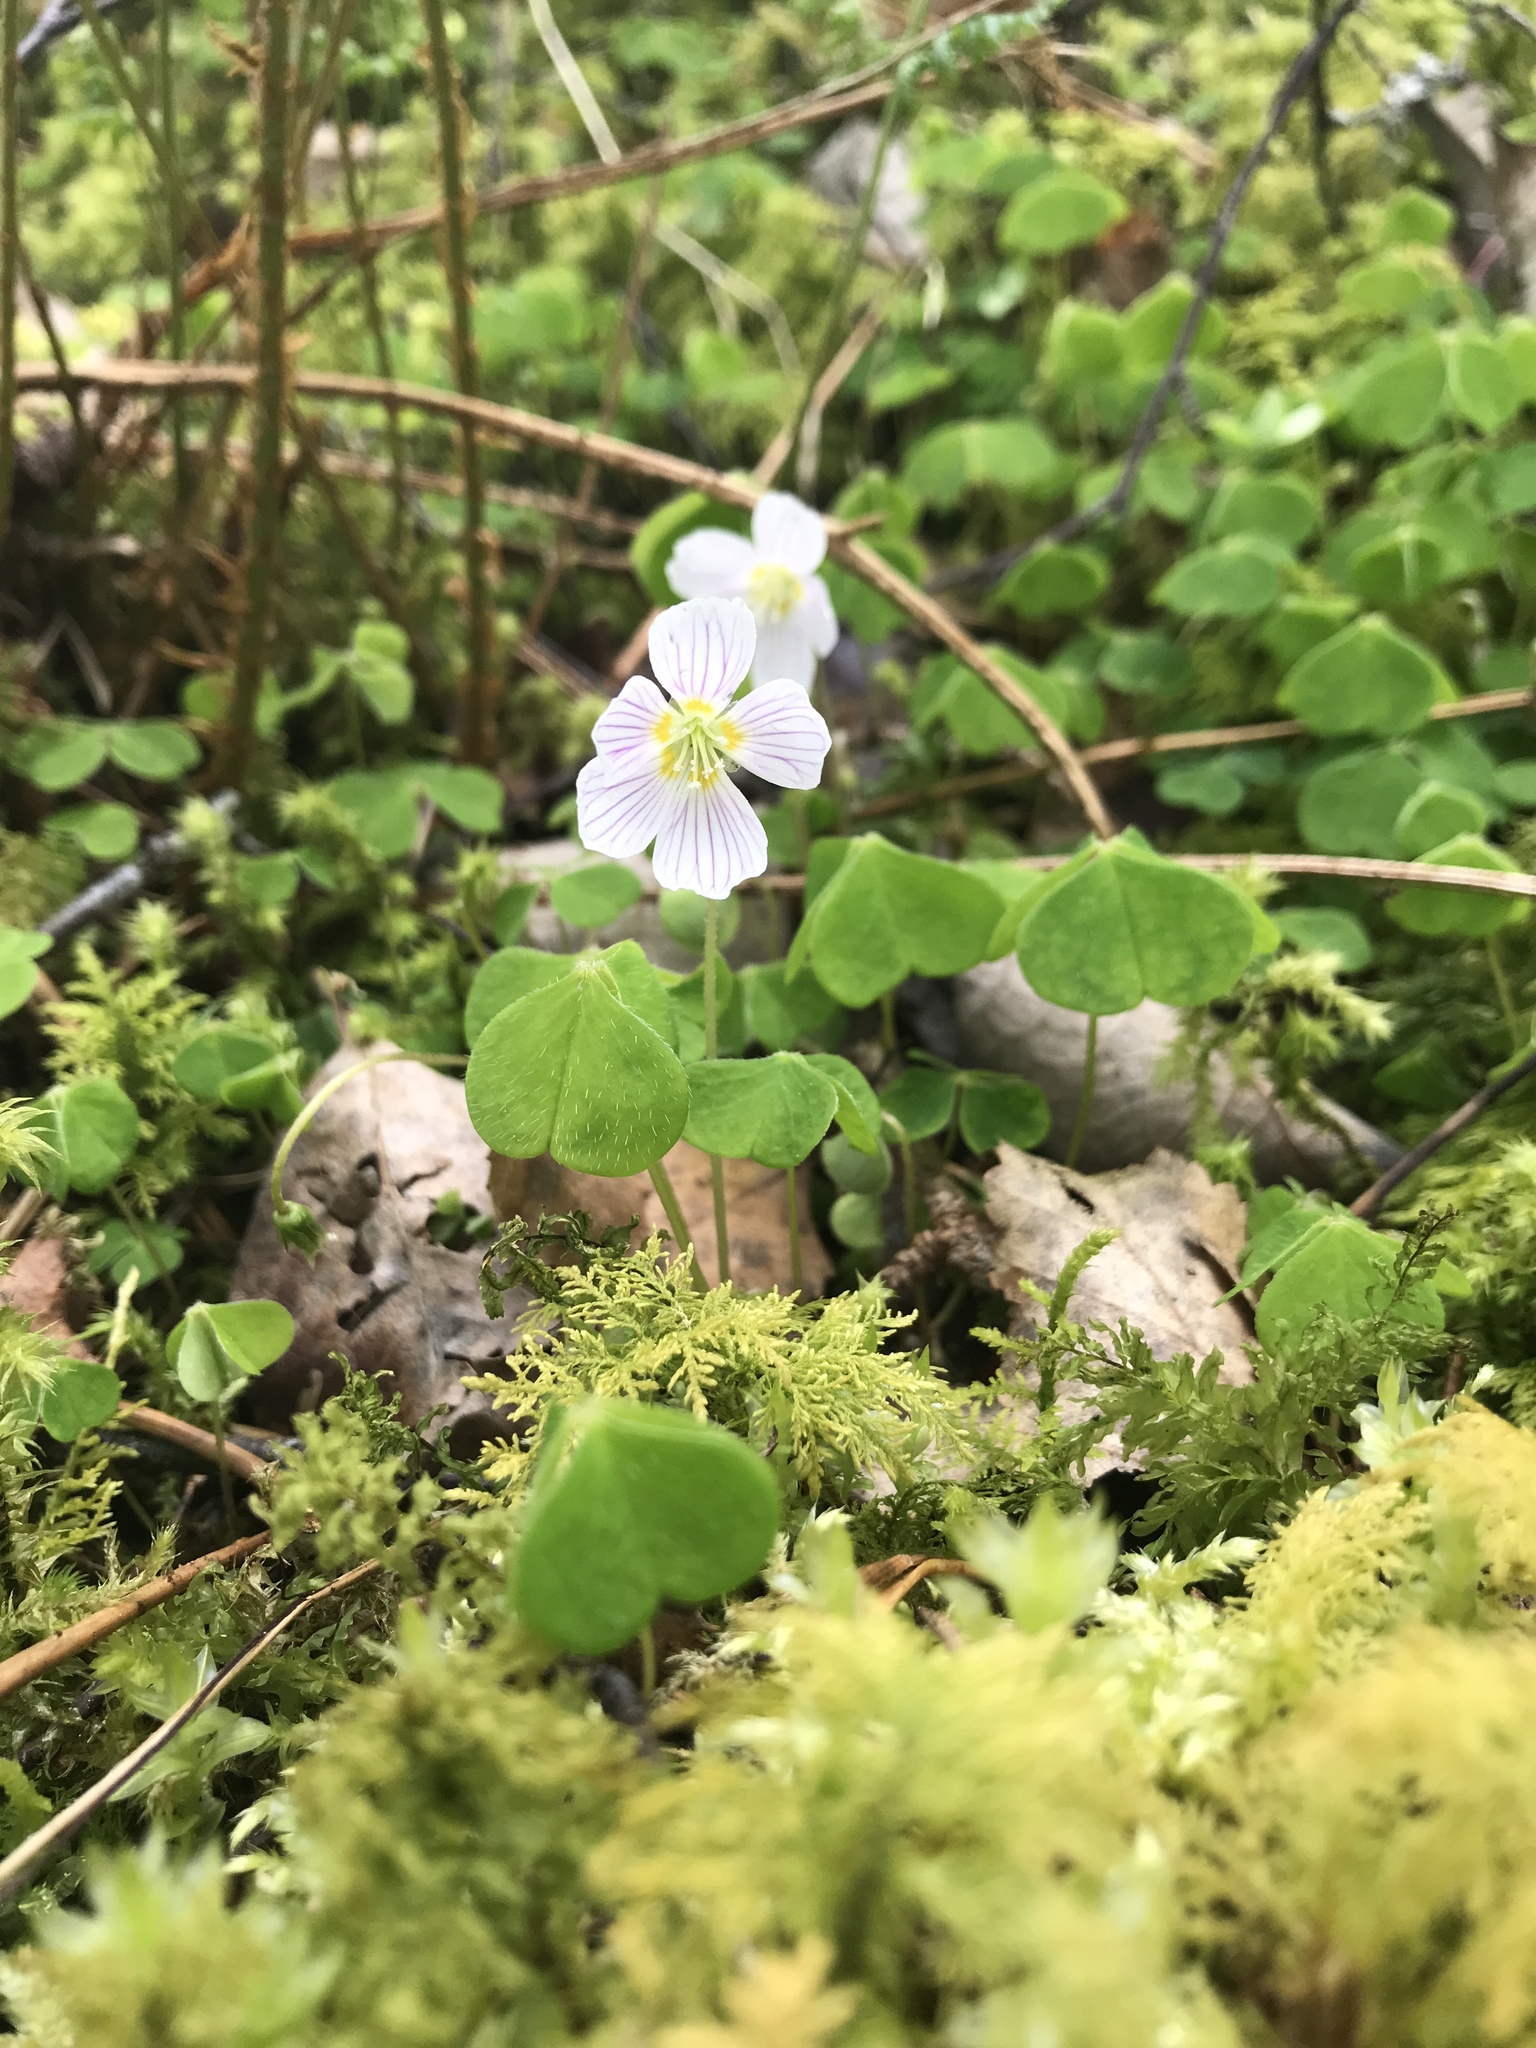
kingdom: Plantae
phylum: Tracheophyta
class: Magnoliopsida
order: Oxalidales
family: Oxalidaceae
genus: Oxalis
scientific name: Oxalis acetosella
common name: Wood-sorrel
